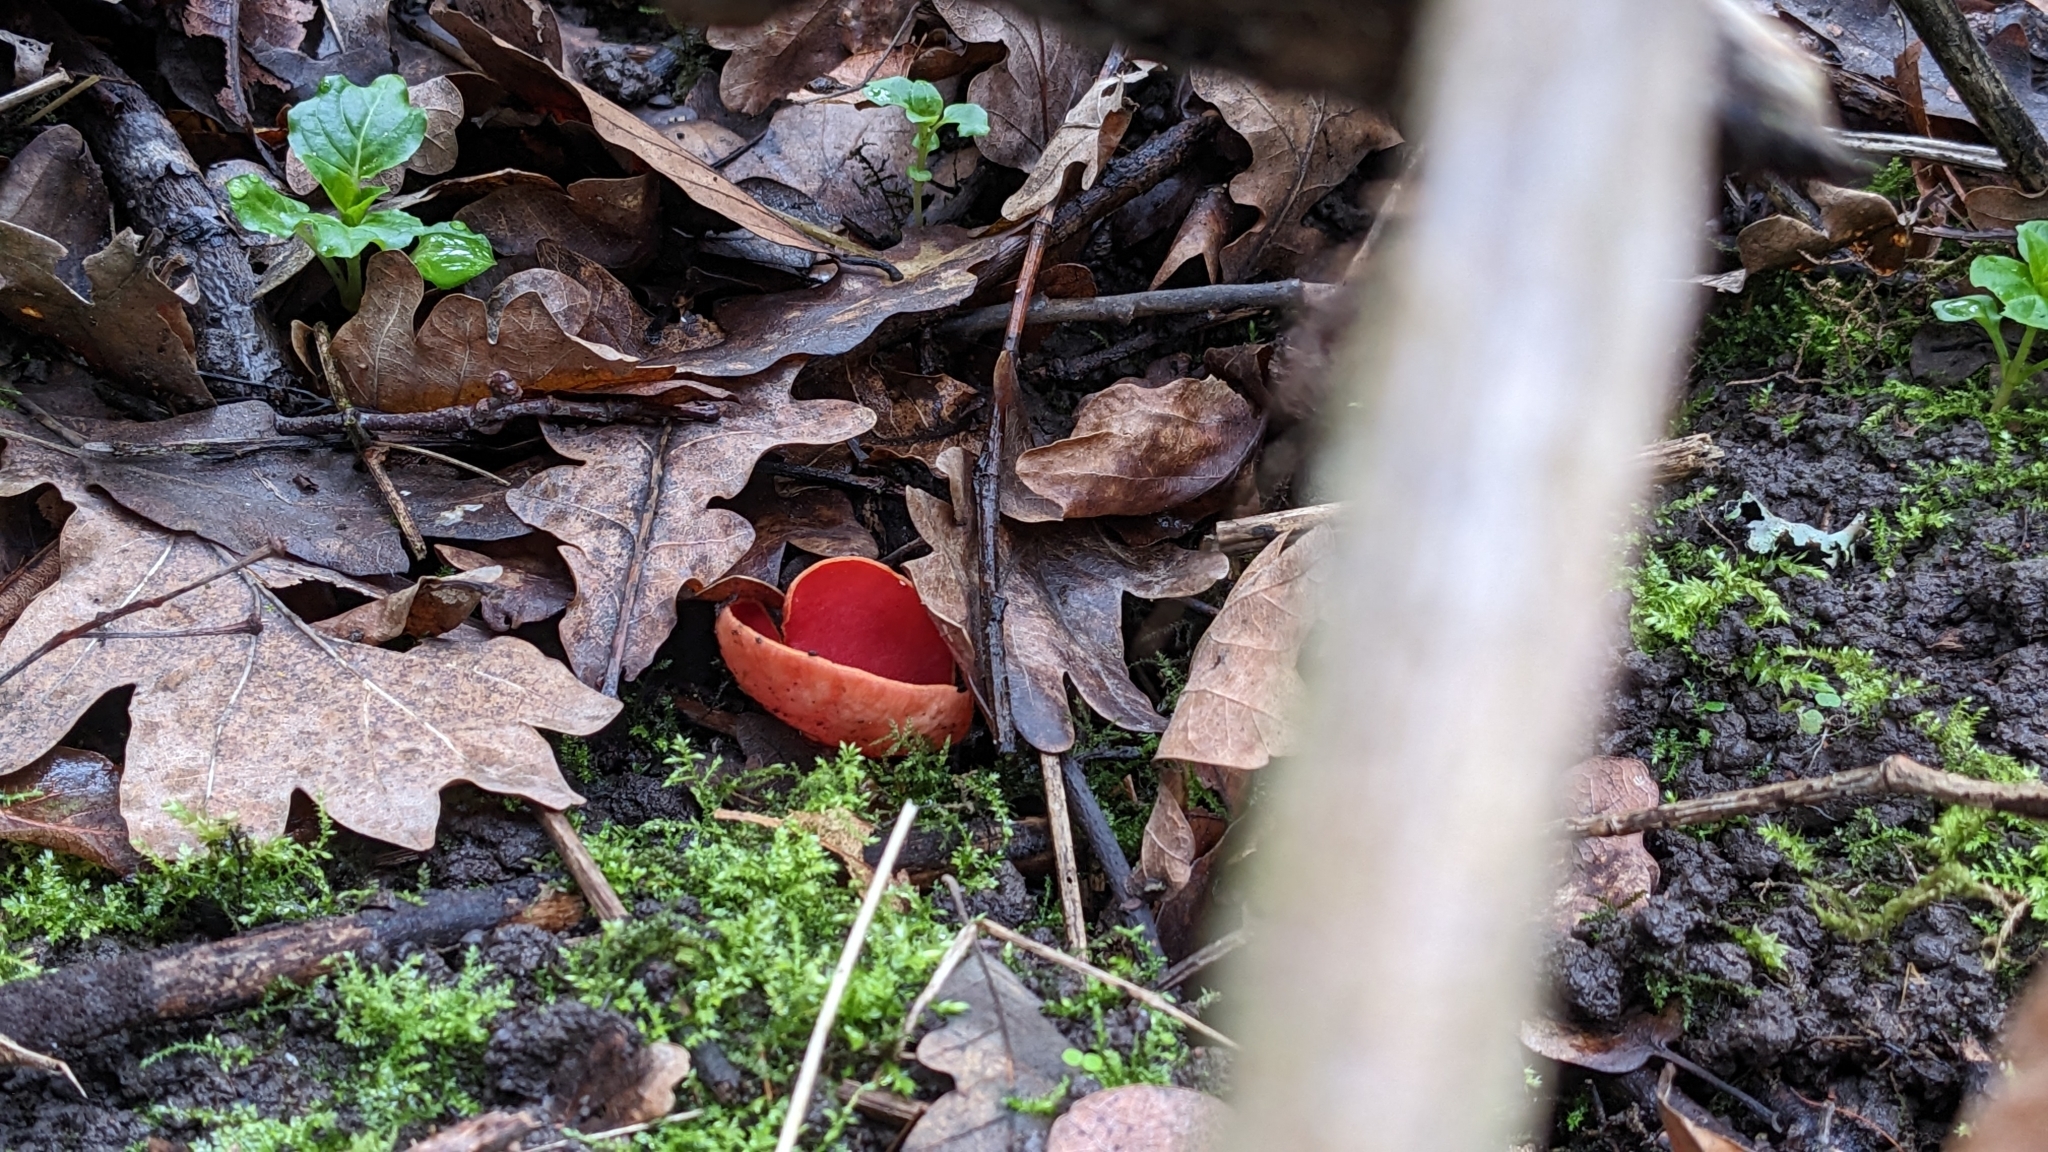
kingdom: Fungi
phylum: Ascomycota
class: Pezizomycetes
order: Pezizales
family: Sarcoscyphaceae
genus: Sarcoscypha
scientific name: Sarcoscypha
